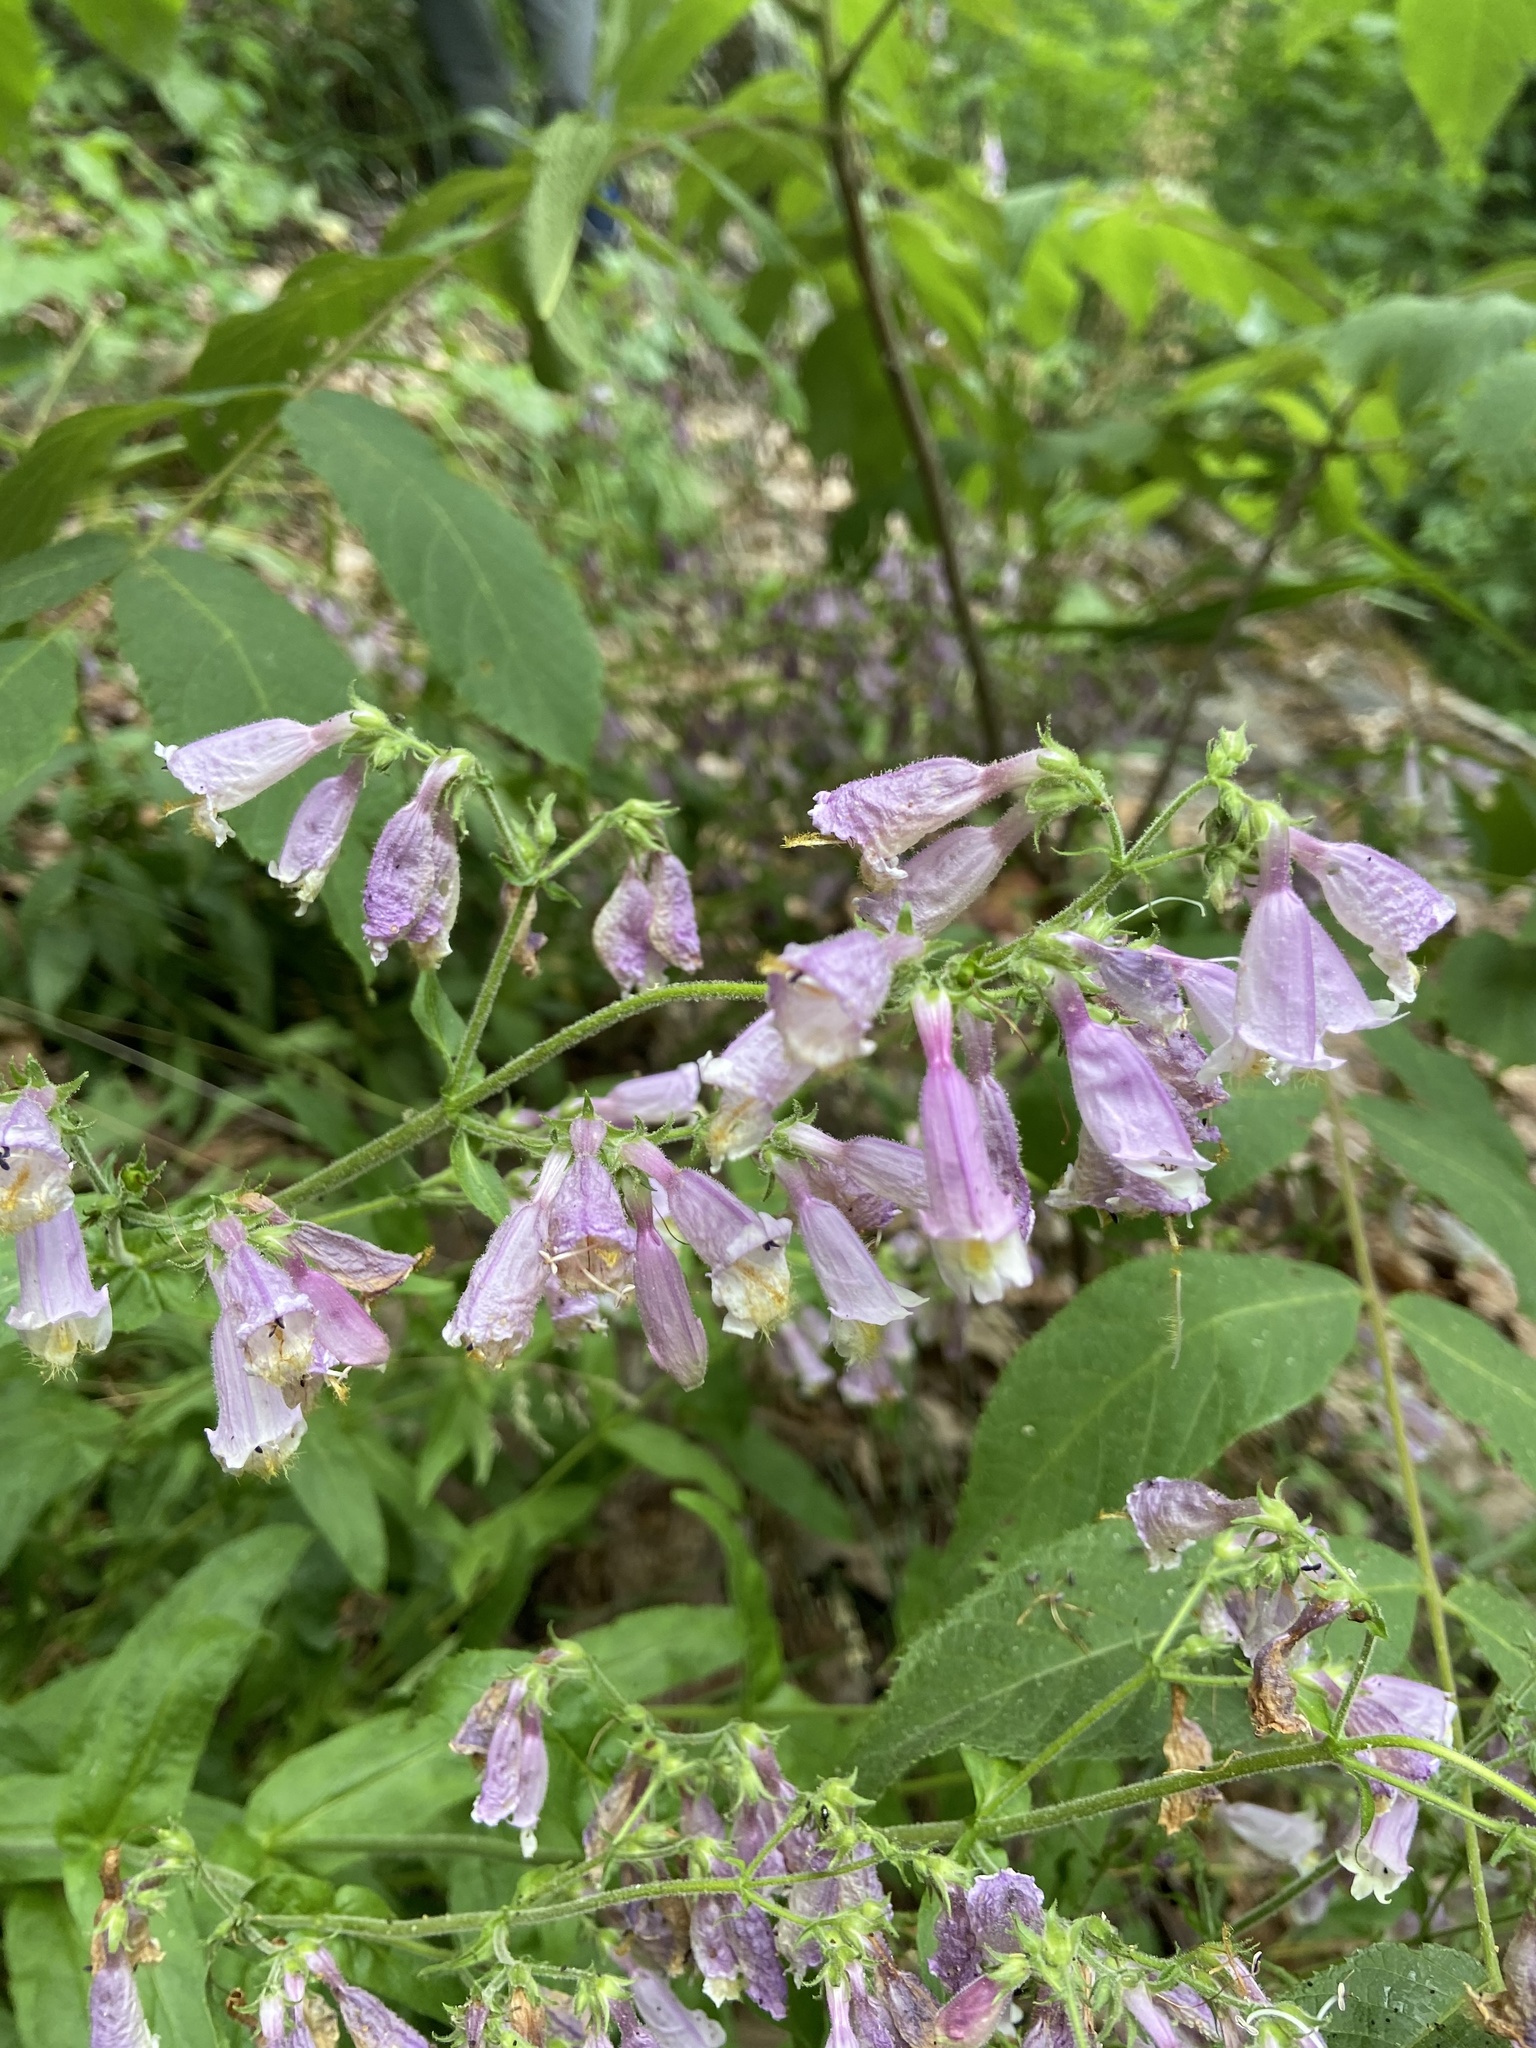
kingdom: Plantae
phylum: Tracheophyta
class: Magnoliopsida
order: Lamiales
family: Plantaginaceae
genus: Penstemon
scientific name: Penstemon canescens
